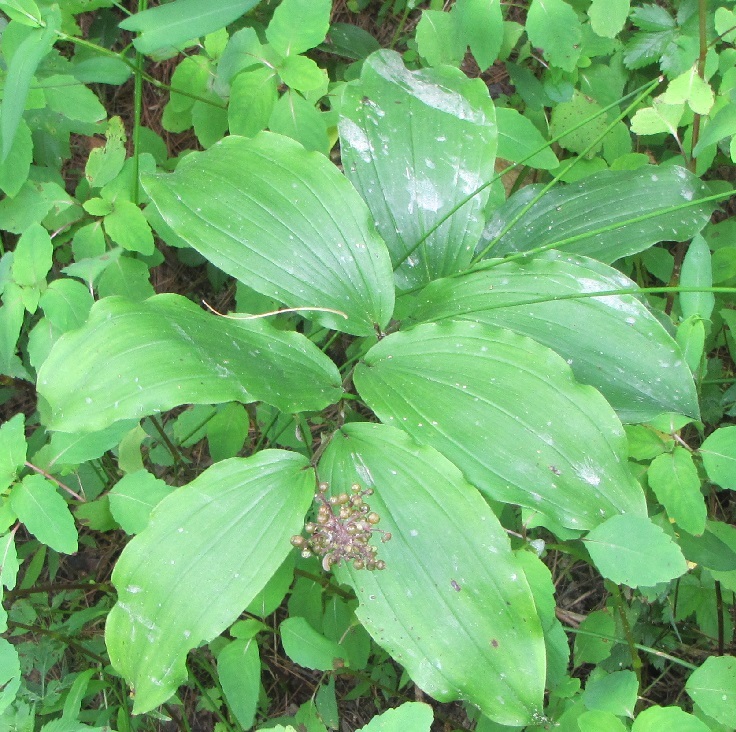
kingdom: Plantae
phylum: Tracheophyta
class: Liliopsida
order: Asparagales
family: Asparagaceae
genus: Maianthemum
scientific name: Maianthemum racemosum
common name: False spikenard
